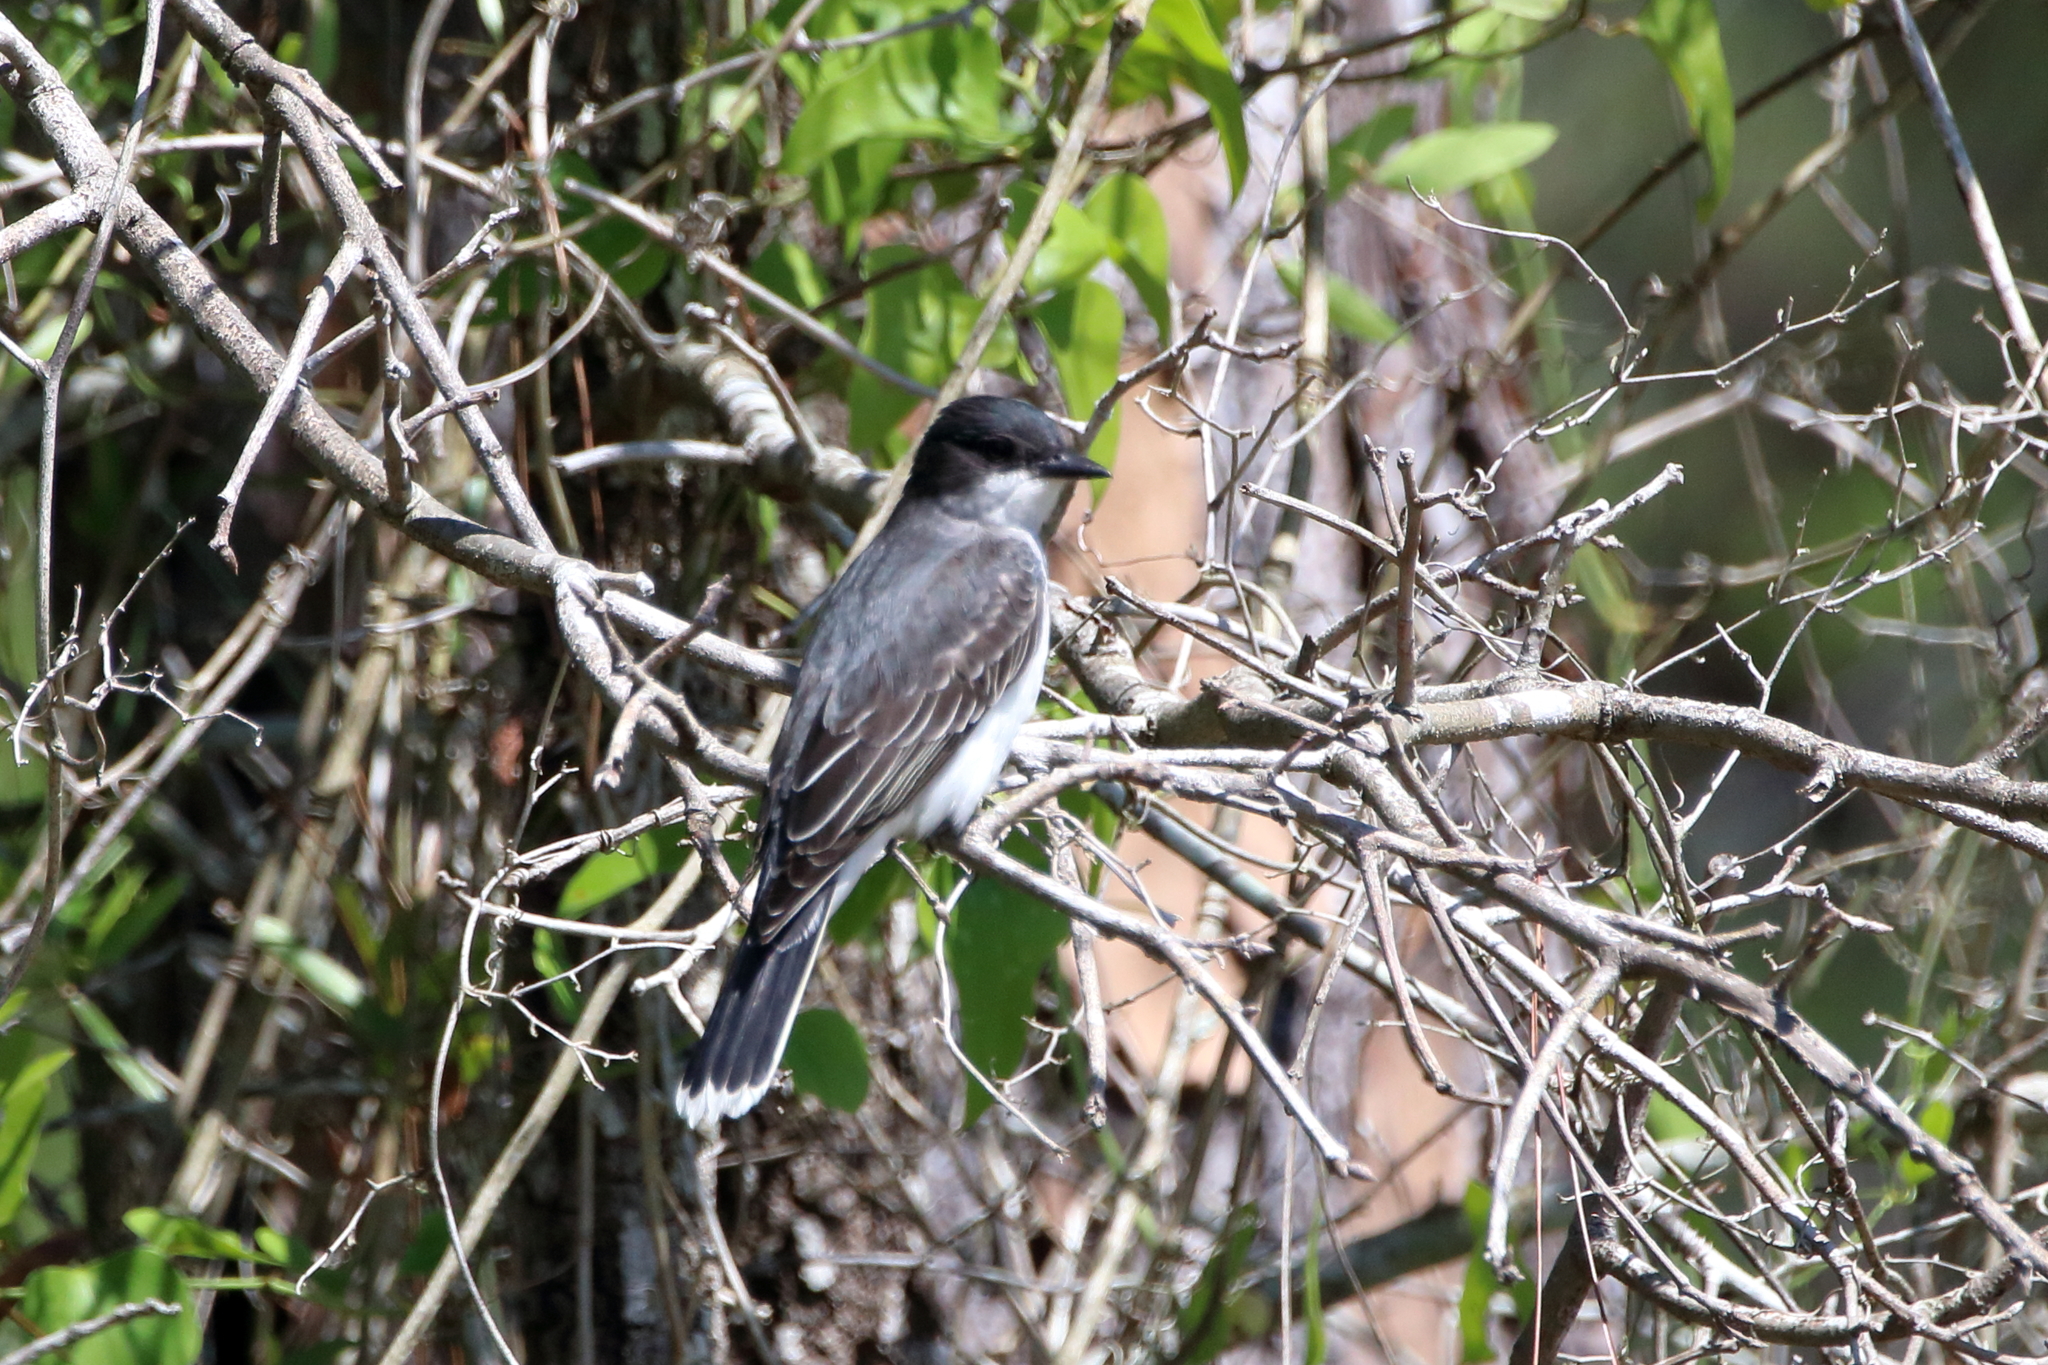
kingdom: Animalia
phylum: Chordata
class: Aves
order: Passeriformes
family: Tyrannidae
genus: Tyrannus
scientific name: Tyrannus tyrannus
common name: Eastern kingbird
